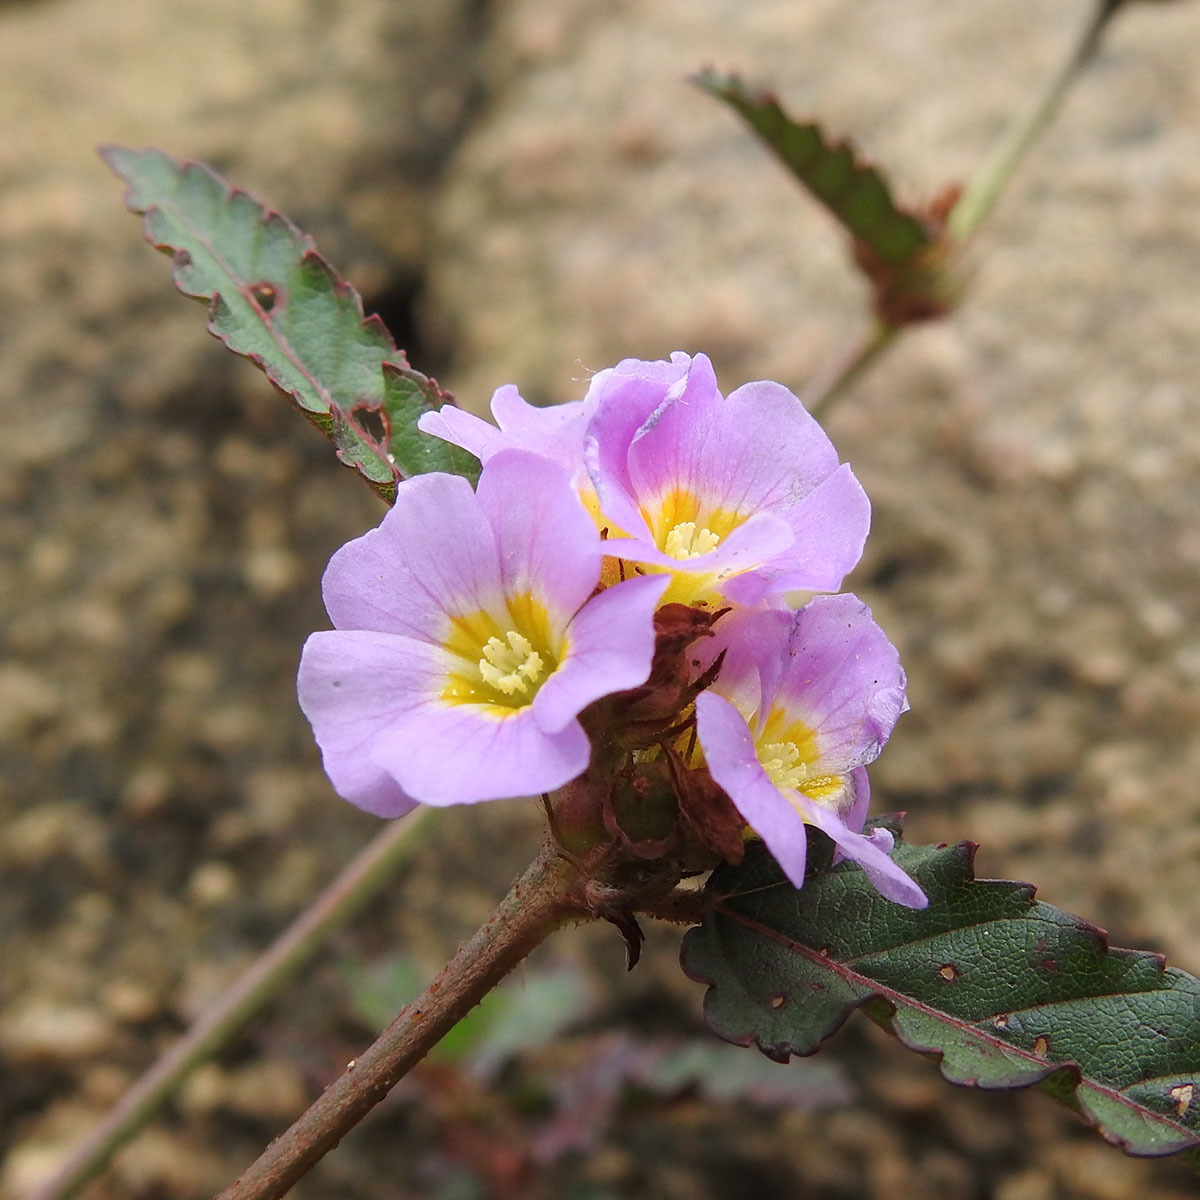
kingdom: Plantae
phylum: Tracheophyta
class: Magnoliopsida
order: Malvales
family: Malvaceae
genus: Melochia
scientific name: Melochia corchorifolia
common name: Chocolateweed
